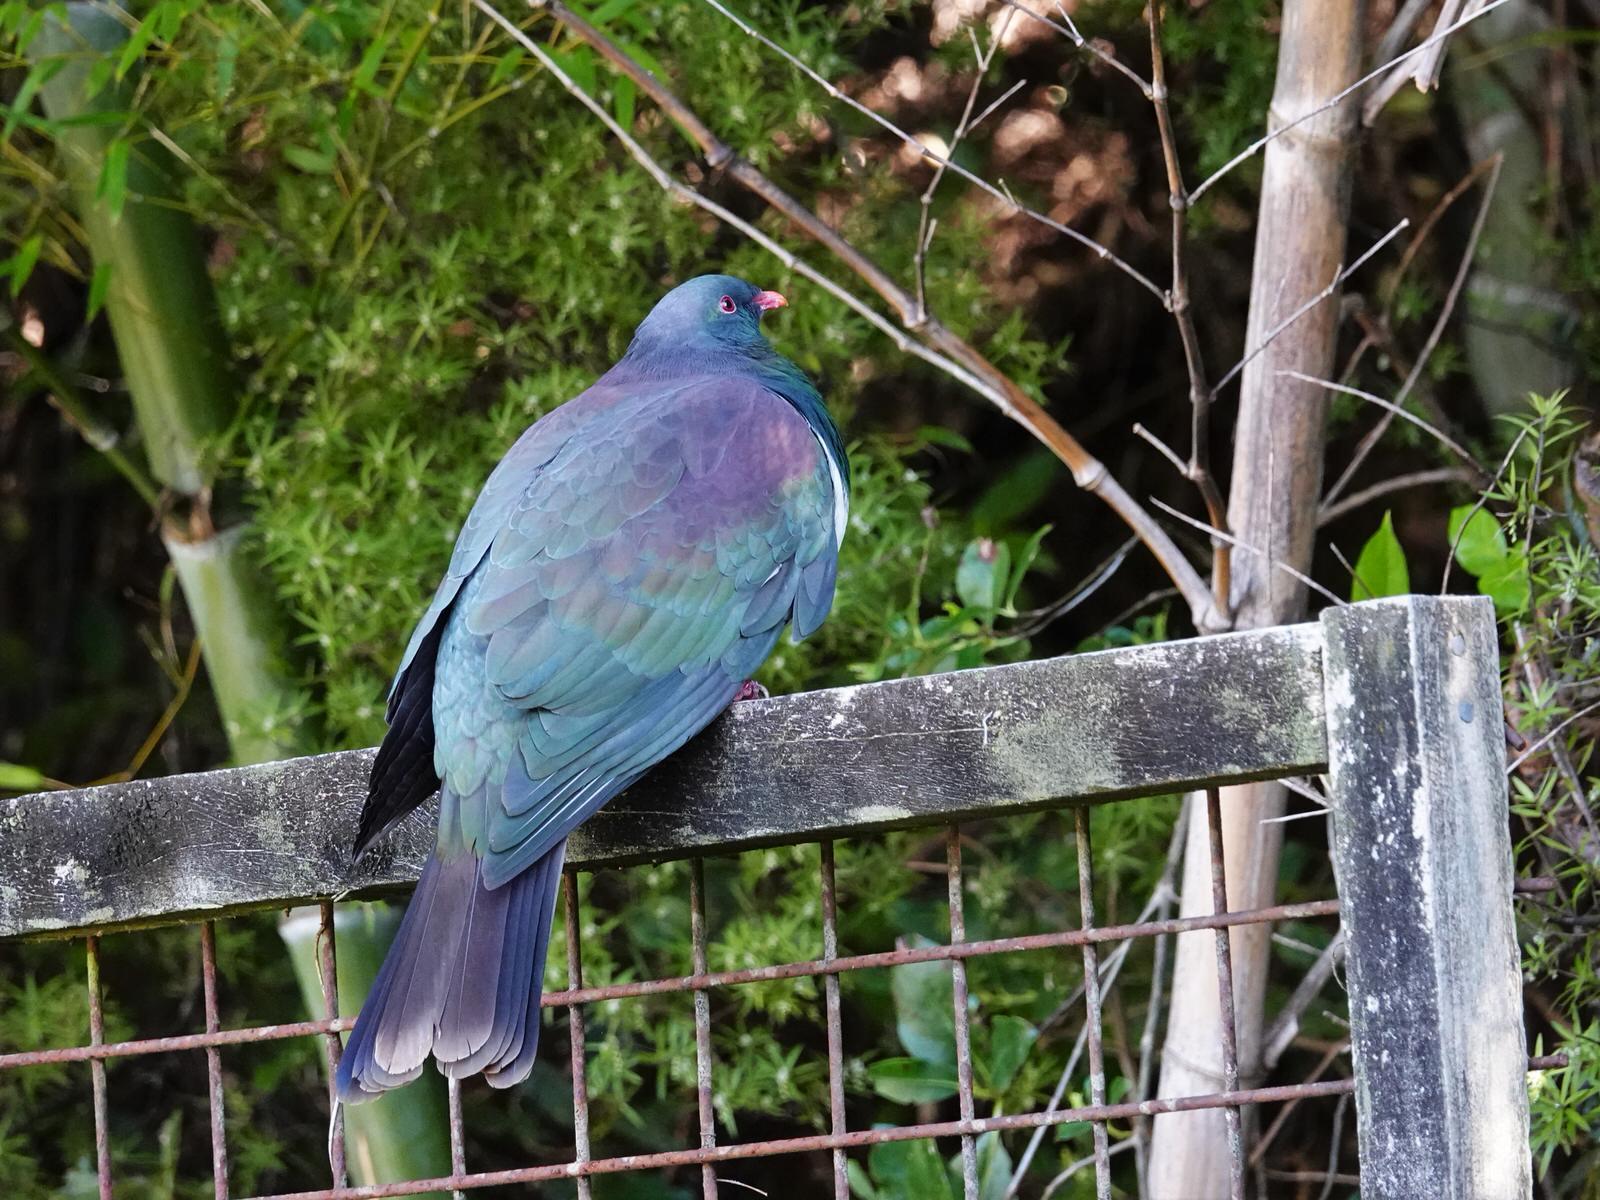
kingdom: Animalia
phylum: Chordata
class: Aves
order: Columbiformes
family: Columbidae
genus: Hemiphaga
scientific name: Hemiphaga novaeseelandiae
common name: New zealand pigeon
